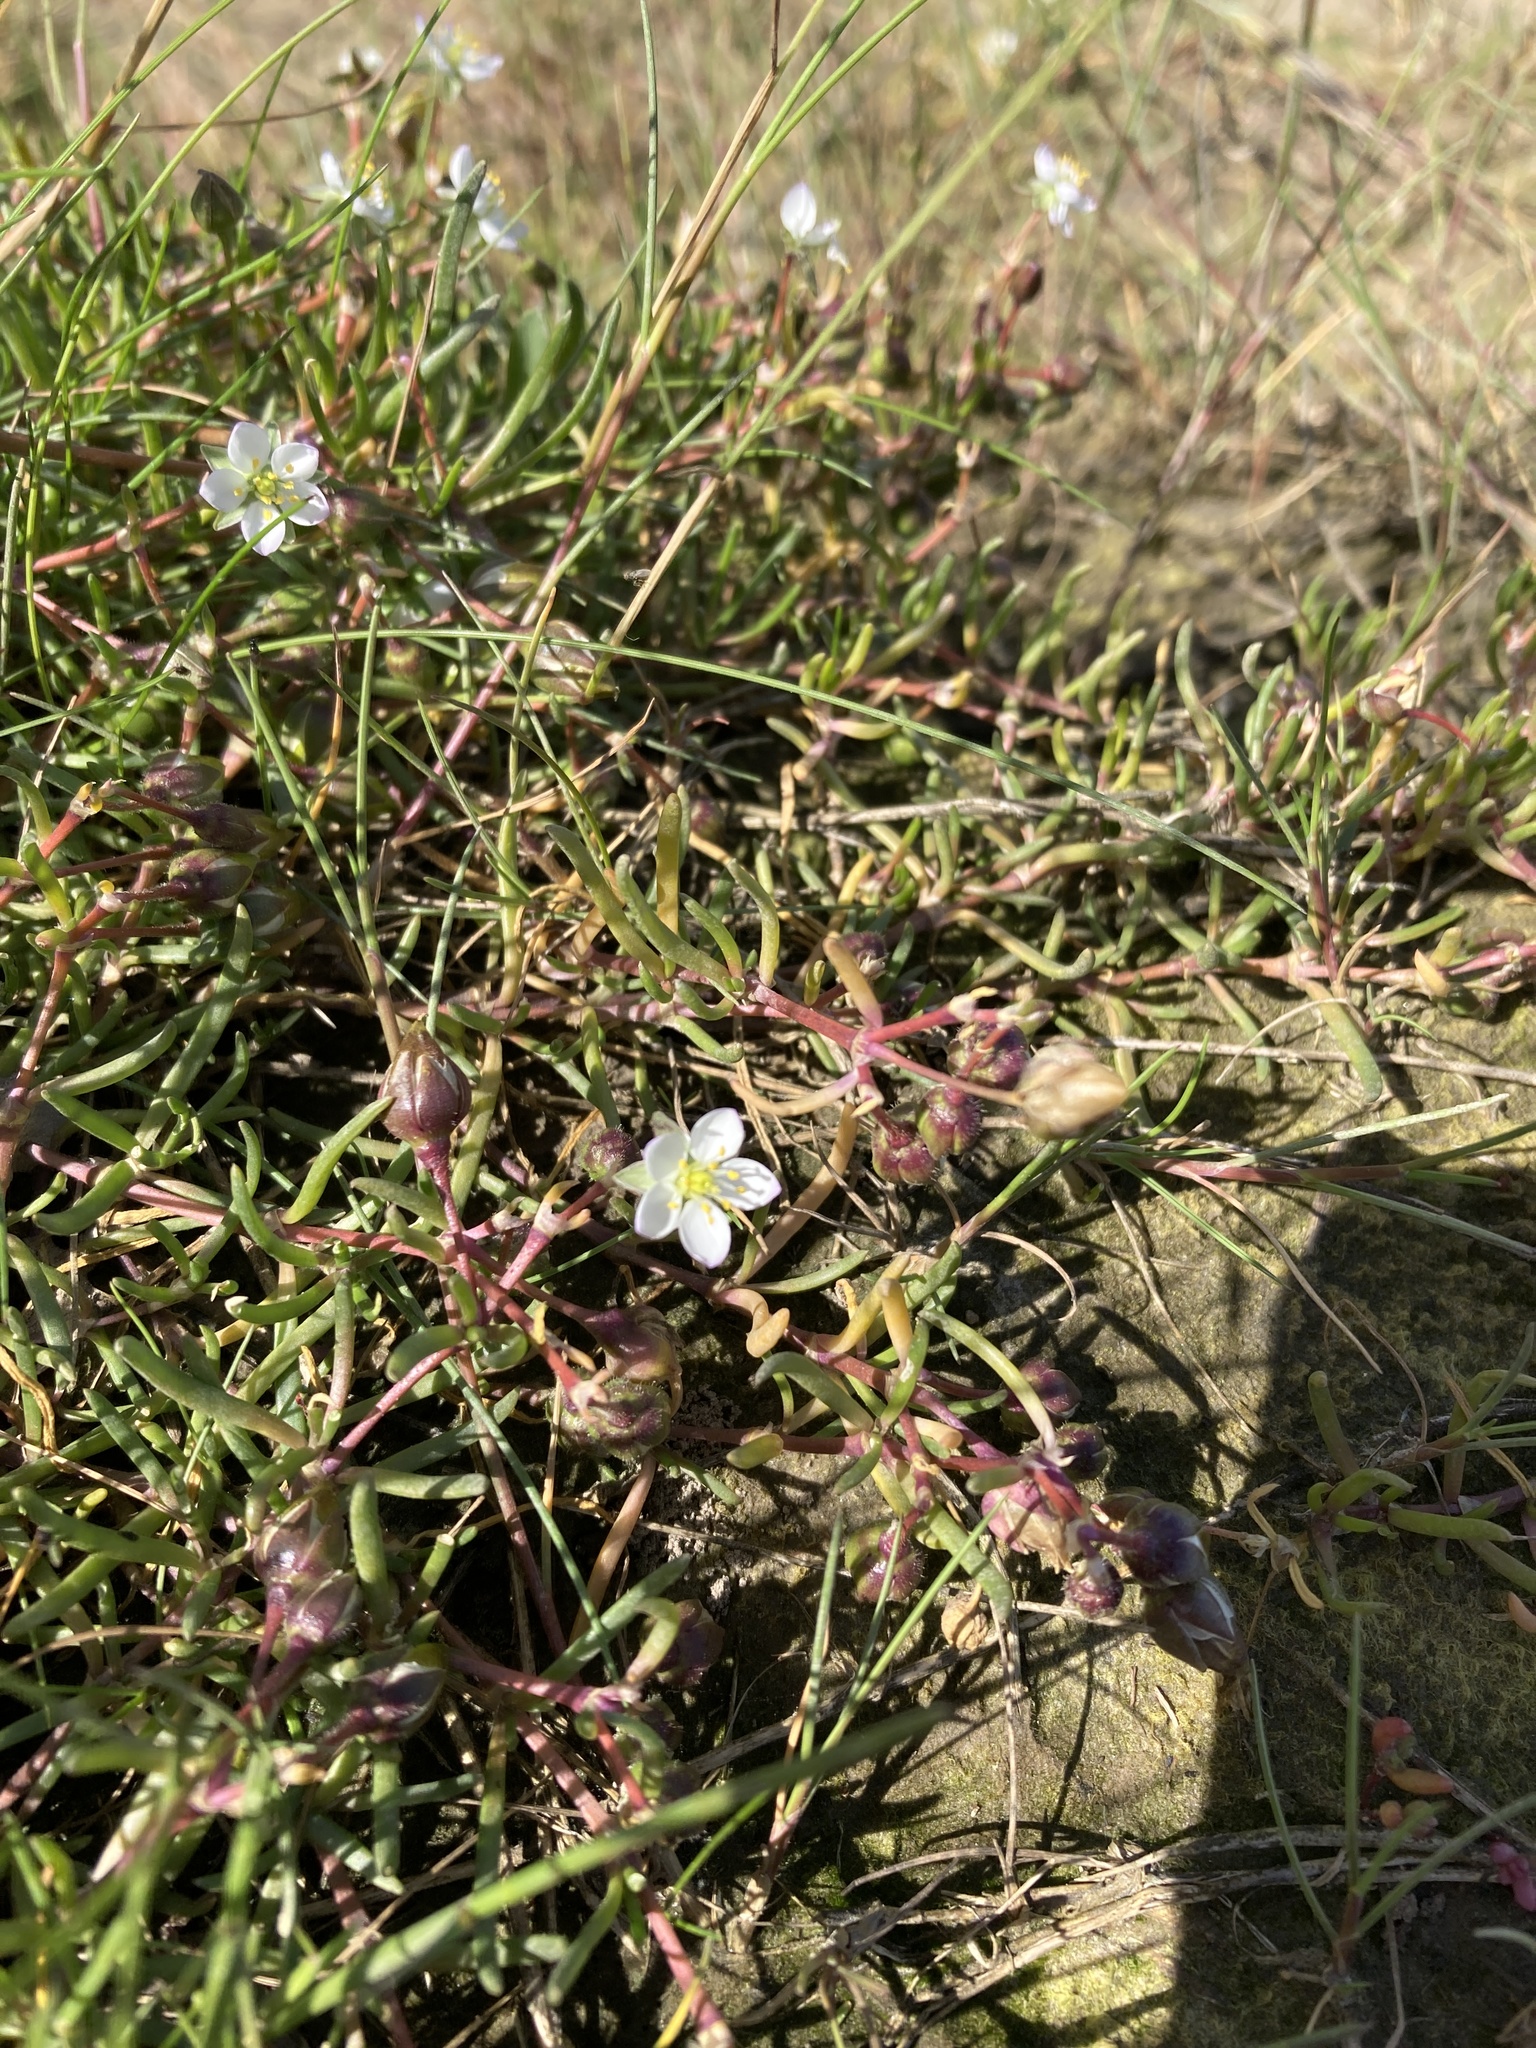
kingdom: Plantae
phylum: Tracheophyta
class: Magnoliopsida
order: Caryophyllales
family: Caryophyllaceae
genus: Spergularia
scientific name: Spergularia media
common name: Greater sea-spurrey
